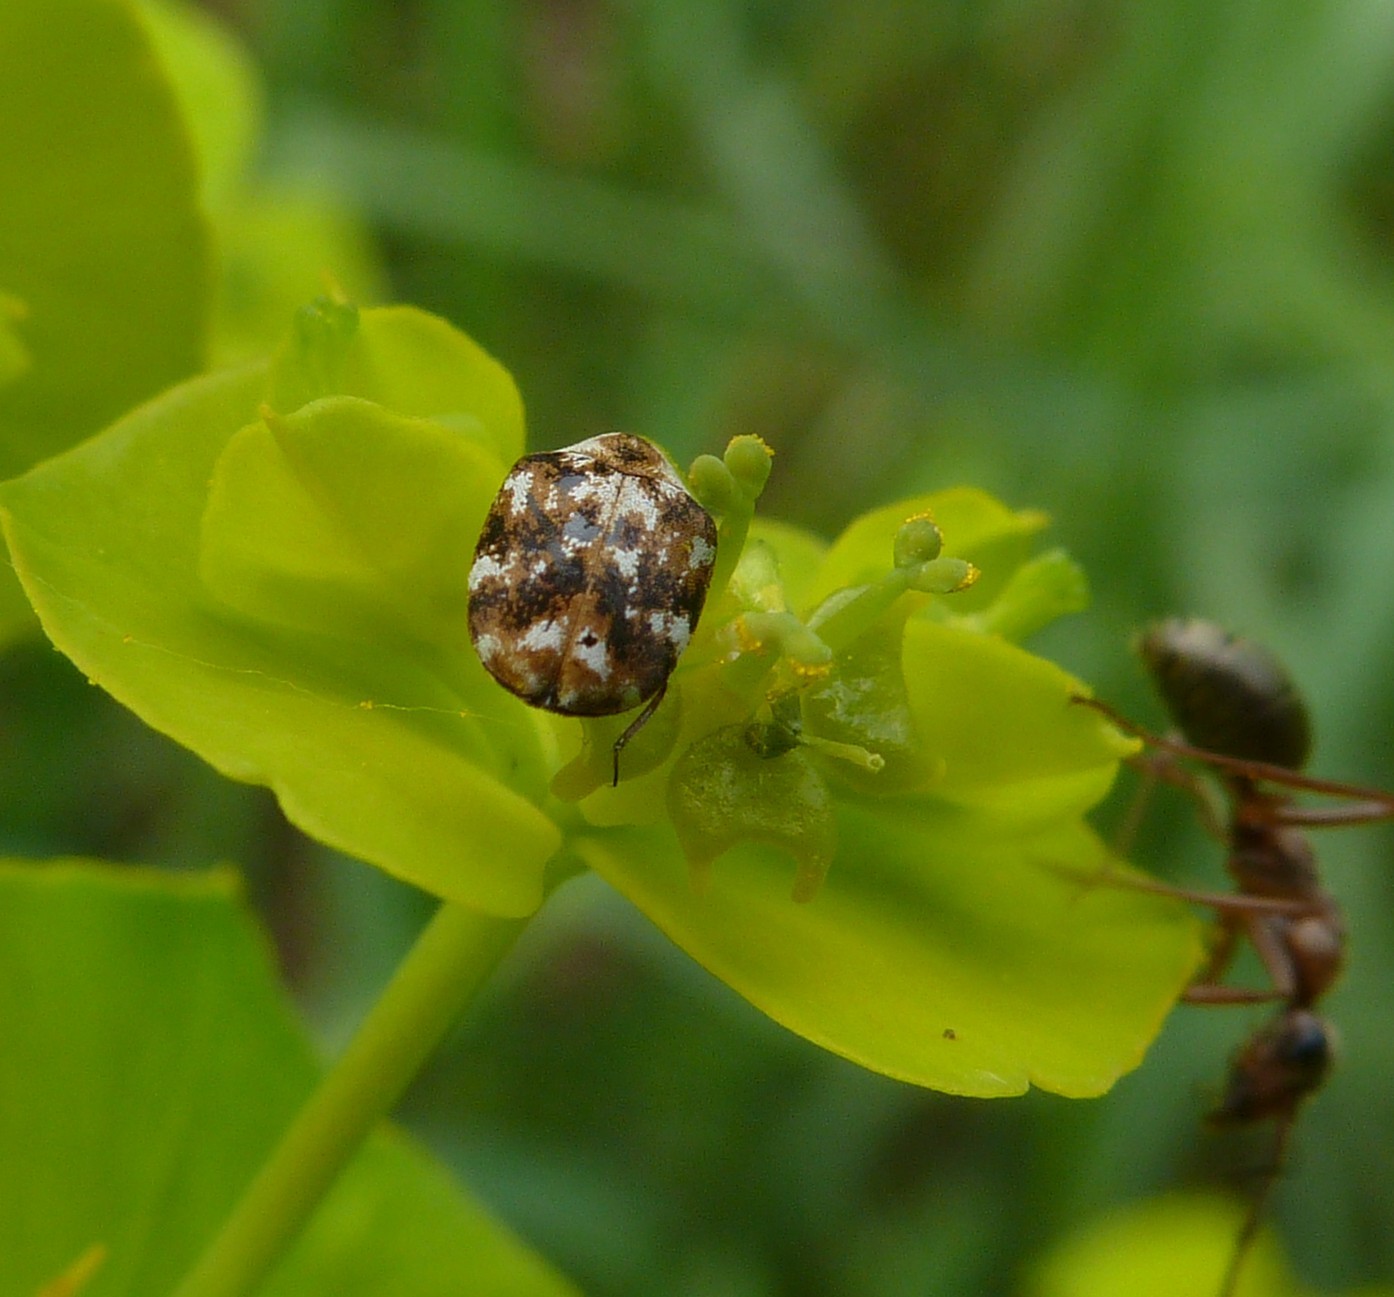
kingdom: Animalia
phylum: Arthropoda
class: Insecta
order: Coleoptera
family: Dermestidae
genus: Anthrenus
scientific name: Anthrenus picturatus
